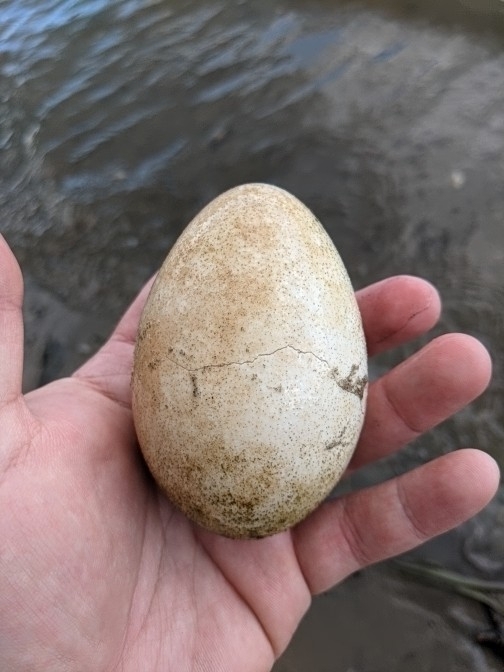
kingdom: Animalia
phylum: Chordata
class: Aves
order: Anseriformes
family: Anatidae
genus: Branta
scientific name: Branta canadensis
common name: Canada goose
